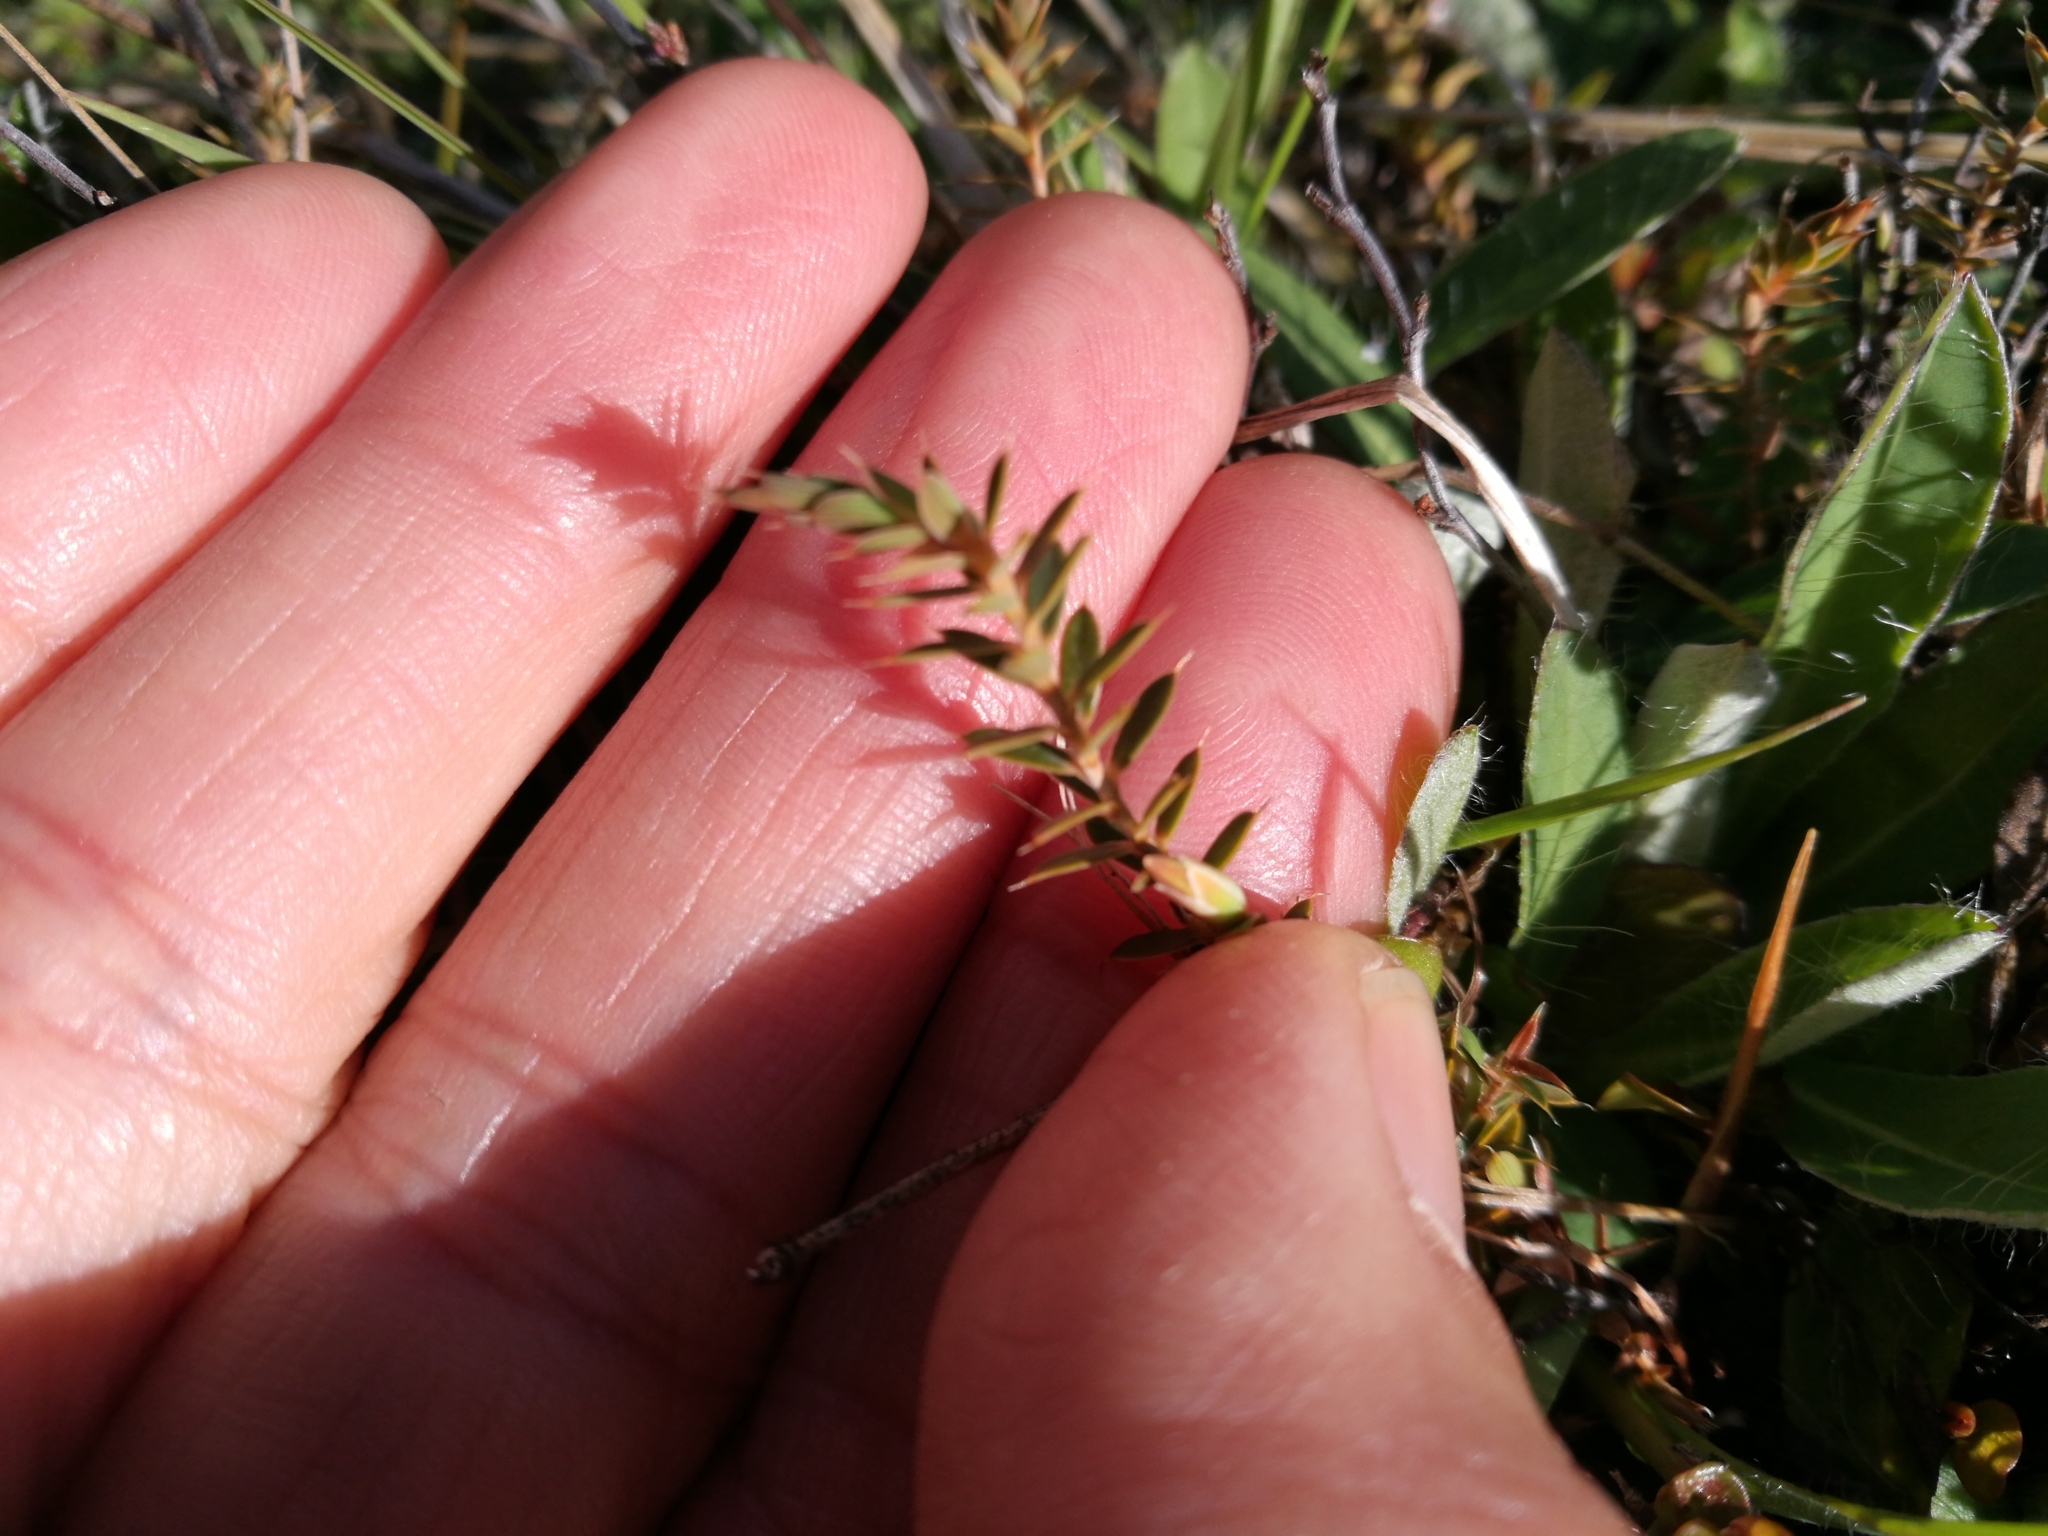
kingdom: Plantae
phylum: Tracheophyta
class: Magnoliopsida
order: Ericales
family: Ericaceae
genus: Styphelia
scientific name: Styphelia nesophila
